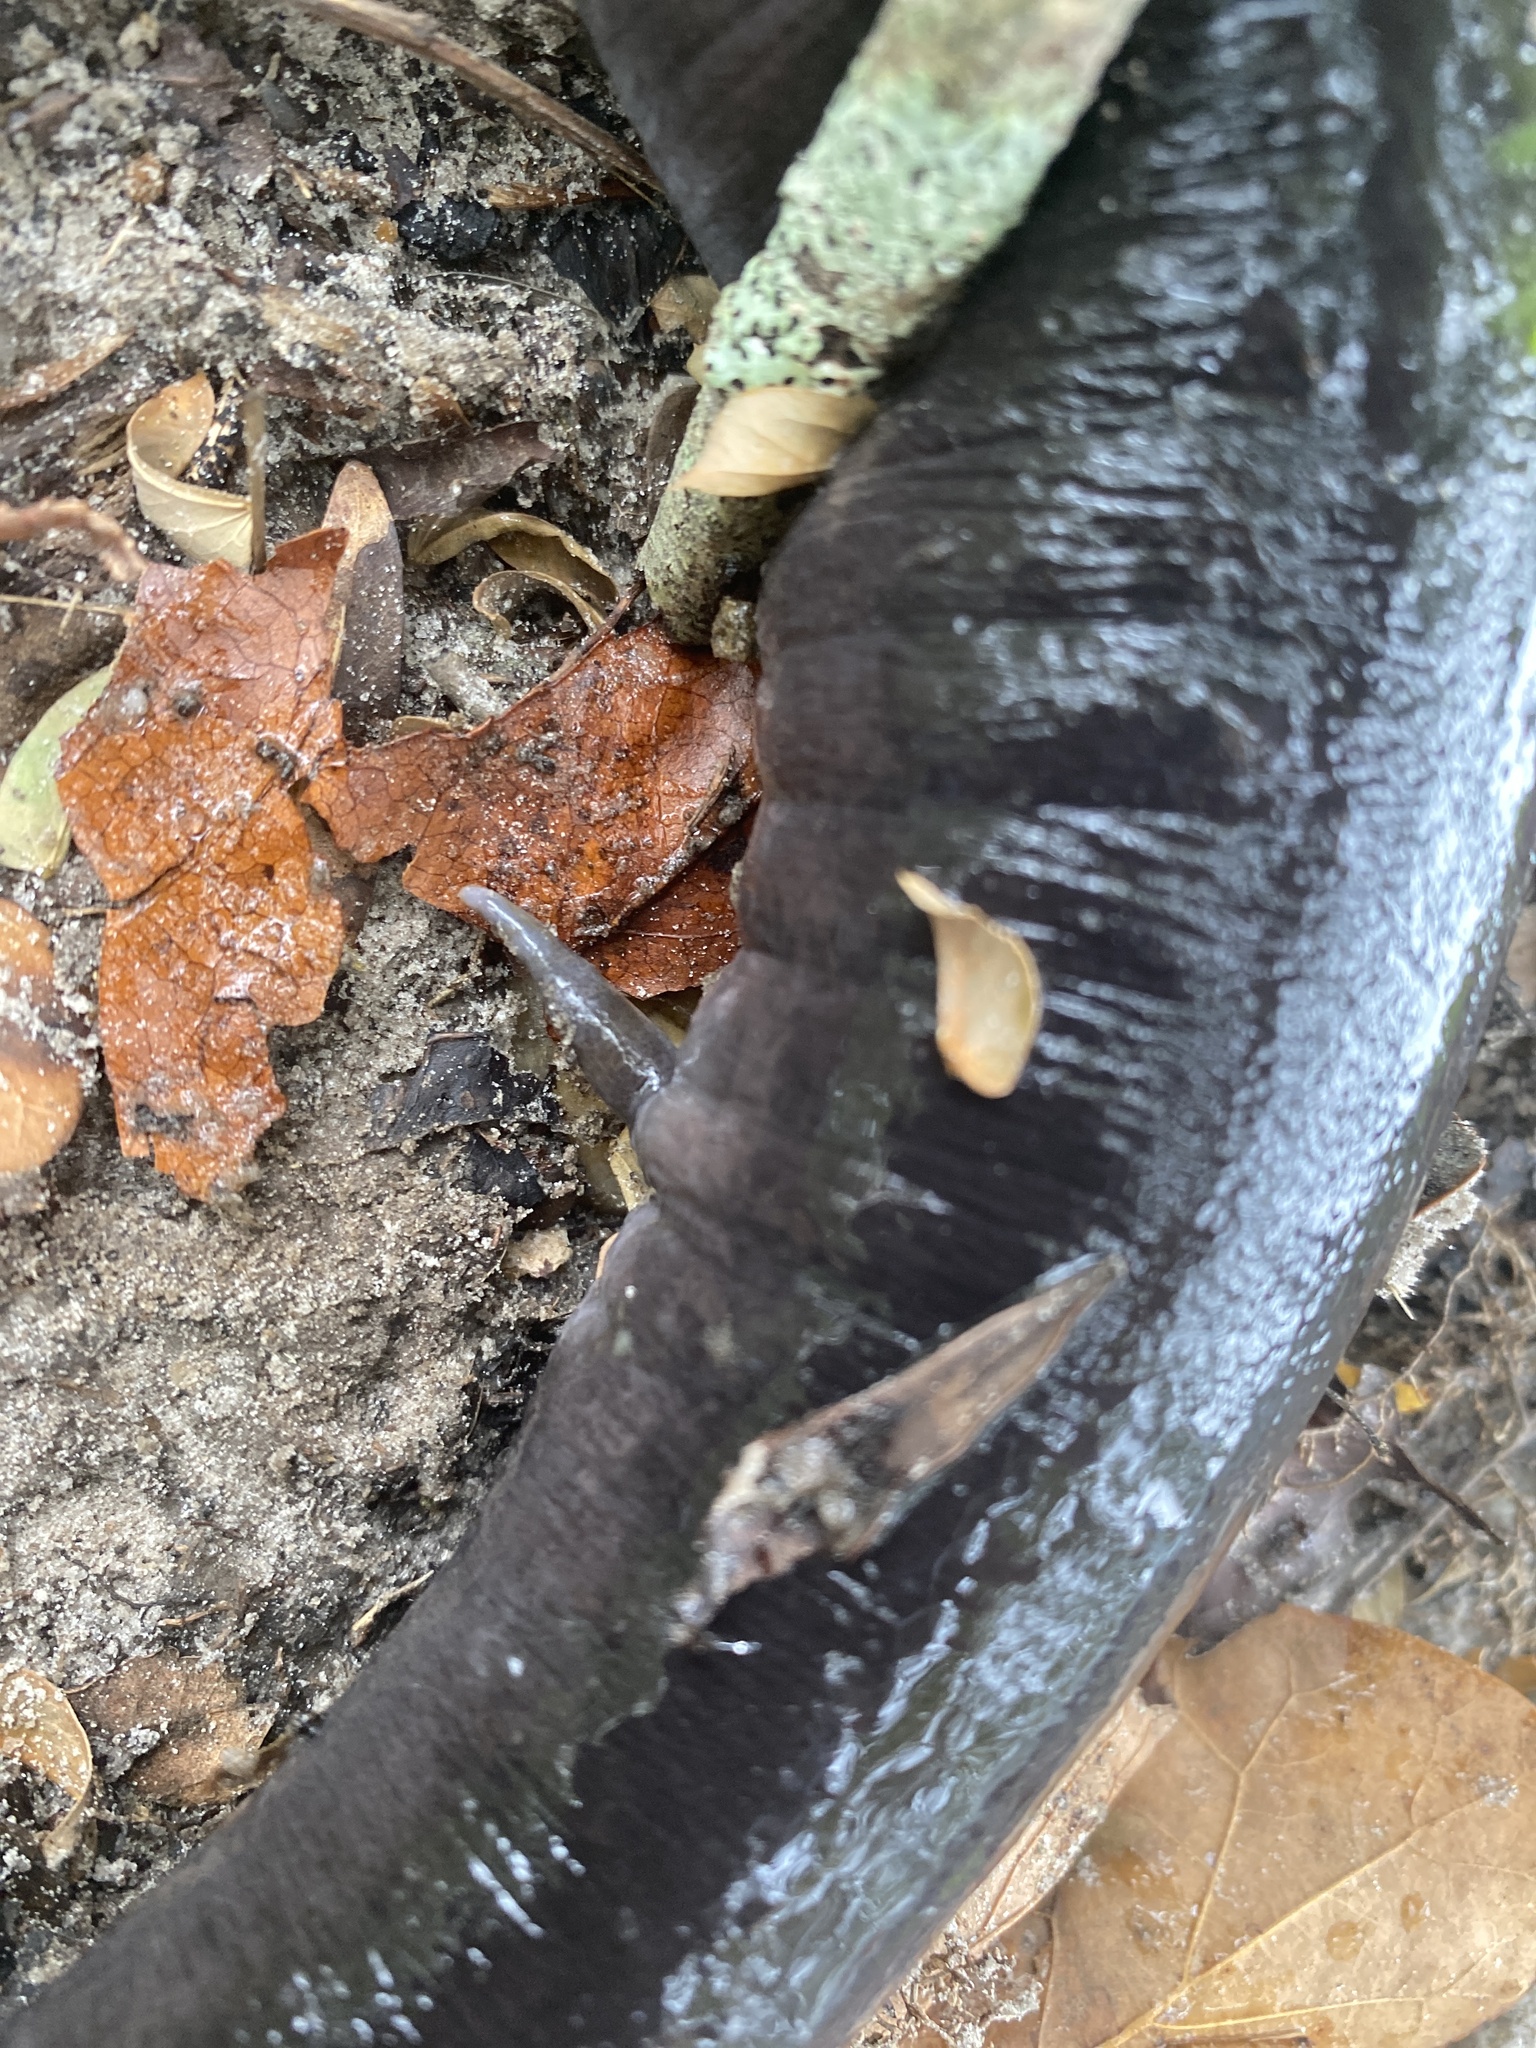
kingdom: Animalia
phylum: Chordata
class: Amphibia
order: Caudata
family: Amphiumidae
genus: Amphiuma
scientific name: Amphiuma means
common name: Two-toed amphiuma
